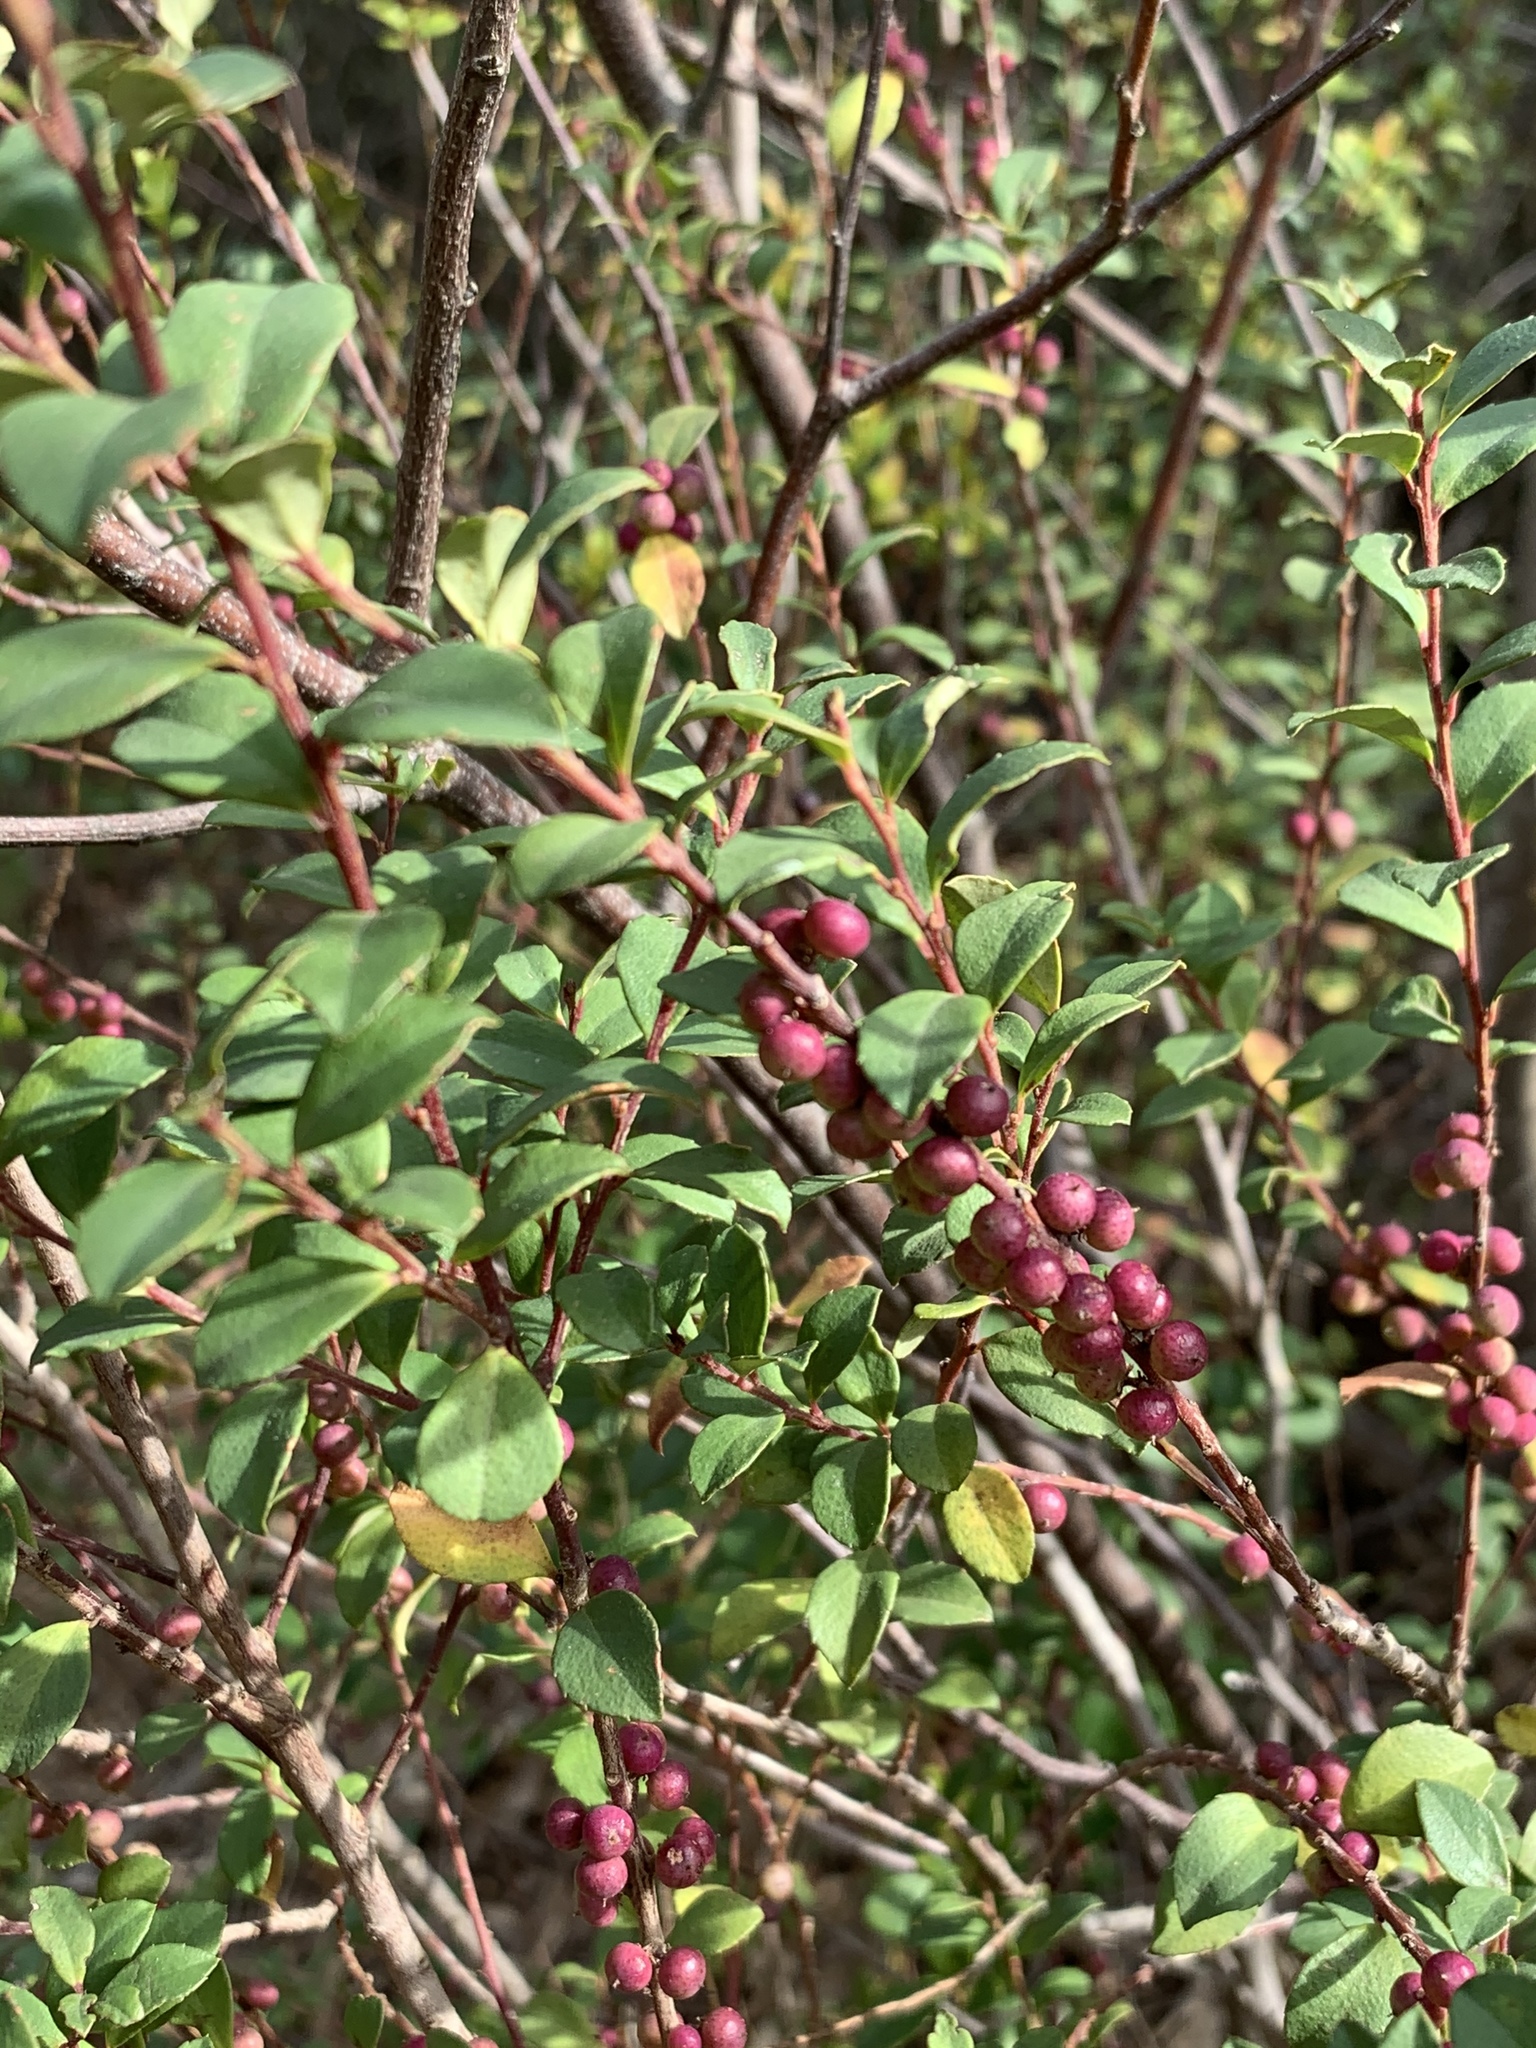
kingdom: Plantae
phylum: Tracheophyta
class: Magnoliopsida
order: Ericales
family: Primulaceae
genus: Myrsine
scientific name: Myrsine africana
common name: African-boxwood
